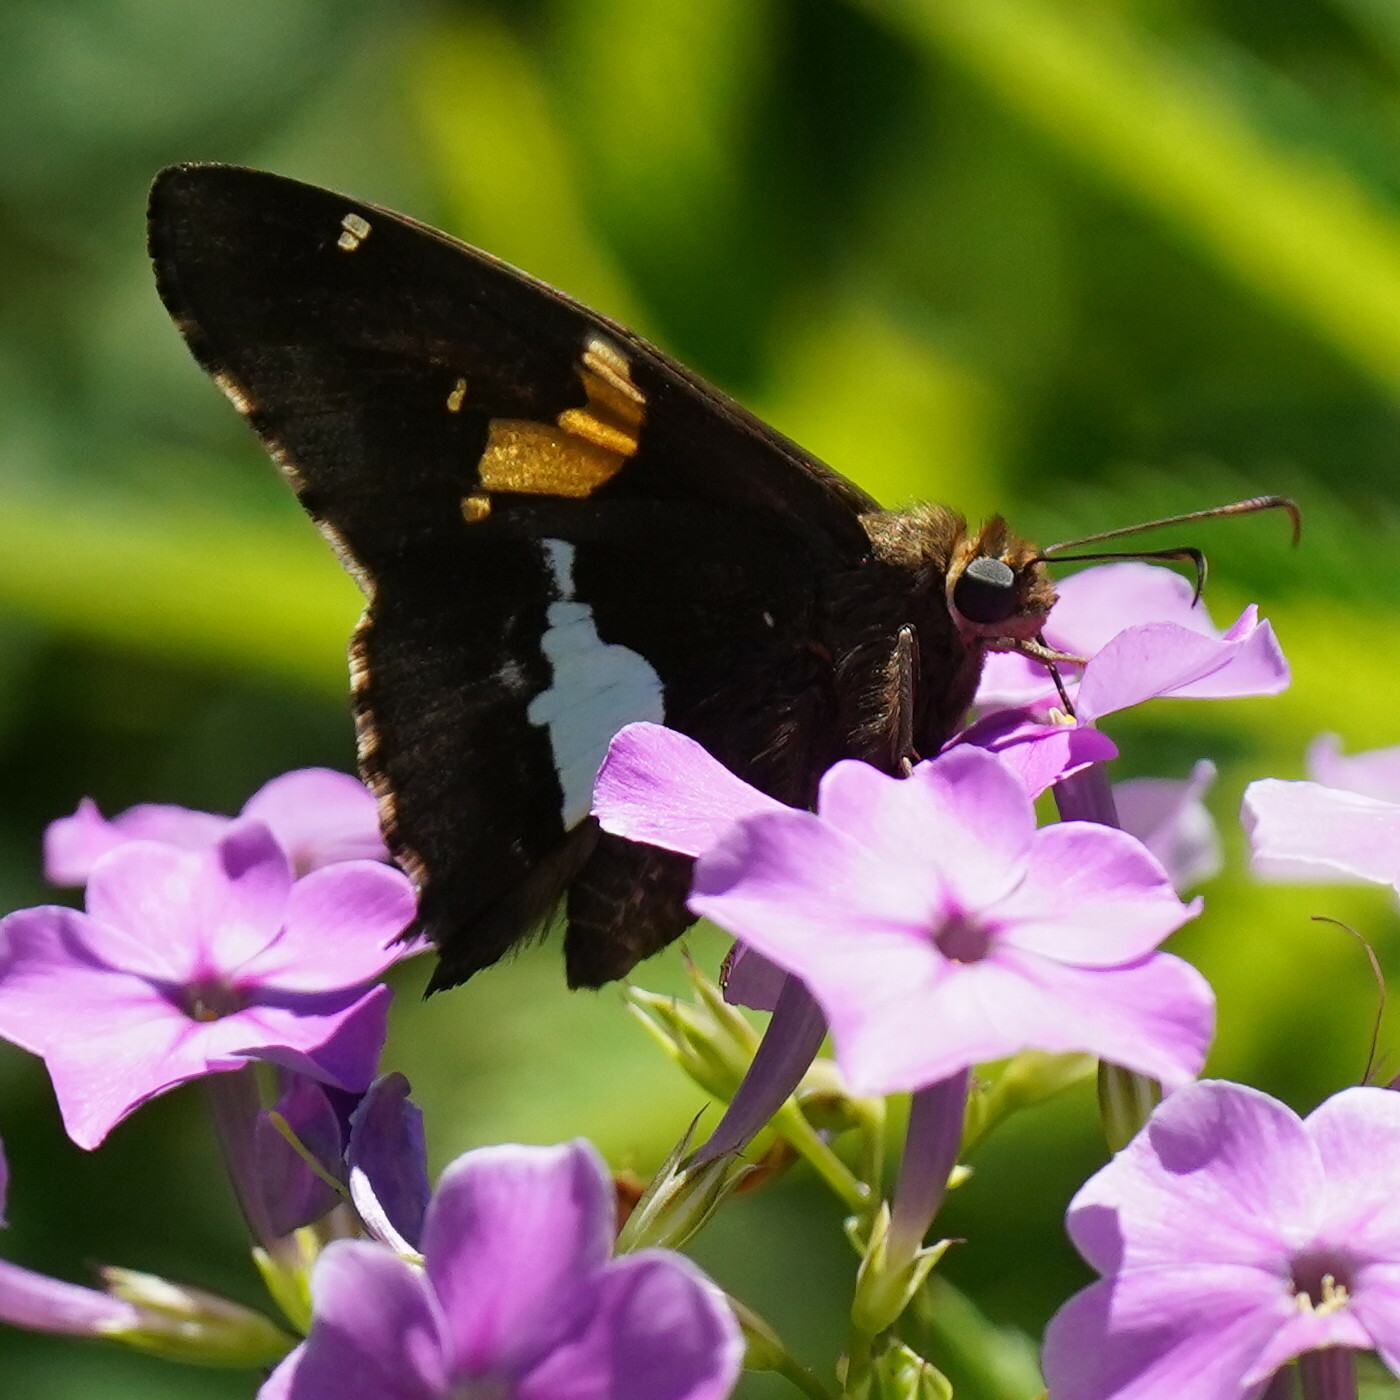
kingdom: Animalia
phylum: Arthropoda
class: Insecta
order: Lepidoptera
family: Hesperiidae
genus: Epargyreus
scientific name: Epargyreus clarus
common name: Silver-spotted skipper
